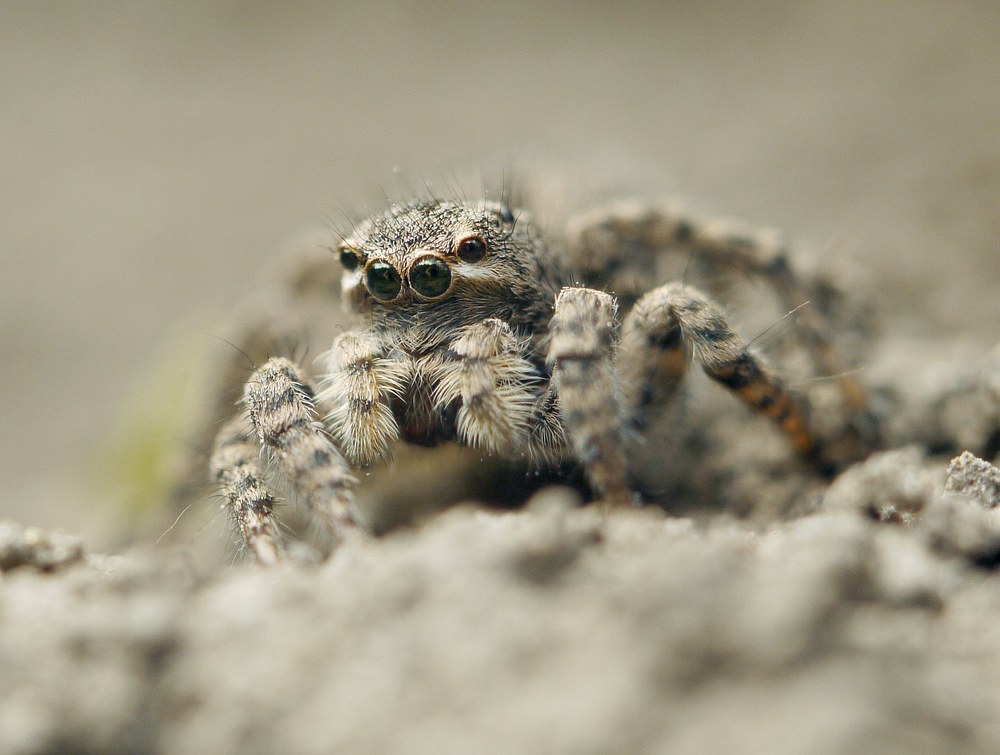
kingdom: Animalia
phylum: Arthropoda
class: Arachnida
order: Araneae
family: Salticidae
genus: Aelurillus
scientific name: Aelurillus v-insignitus
